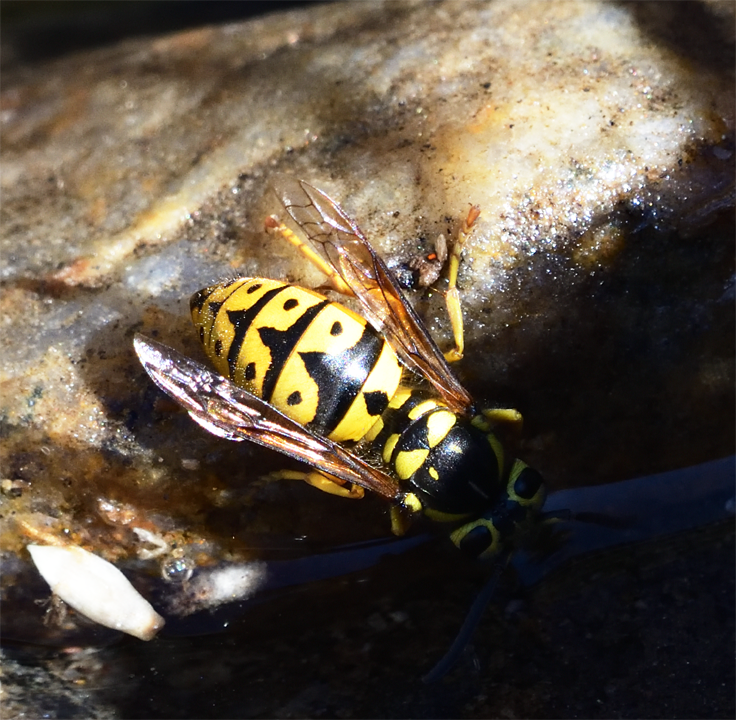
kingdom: Animalia
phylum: Arthropoda
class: Insecta
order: Hymenoptera
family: Vespidae
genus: Vespula
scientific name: Vespula pensylvanica
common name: Western yellowjacket
